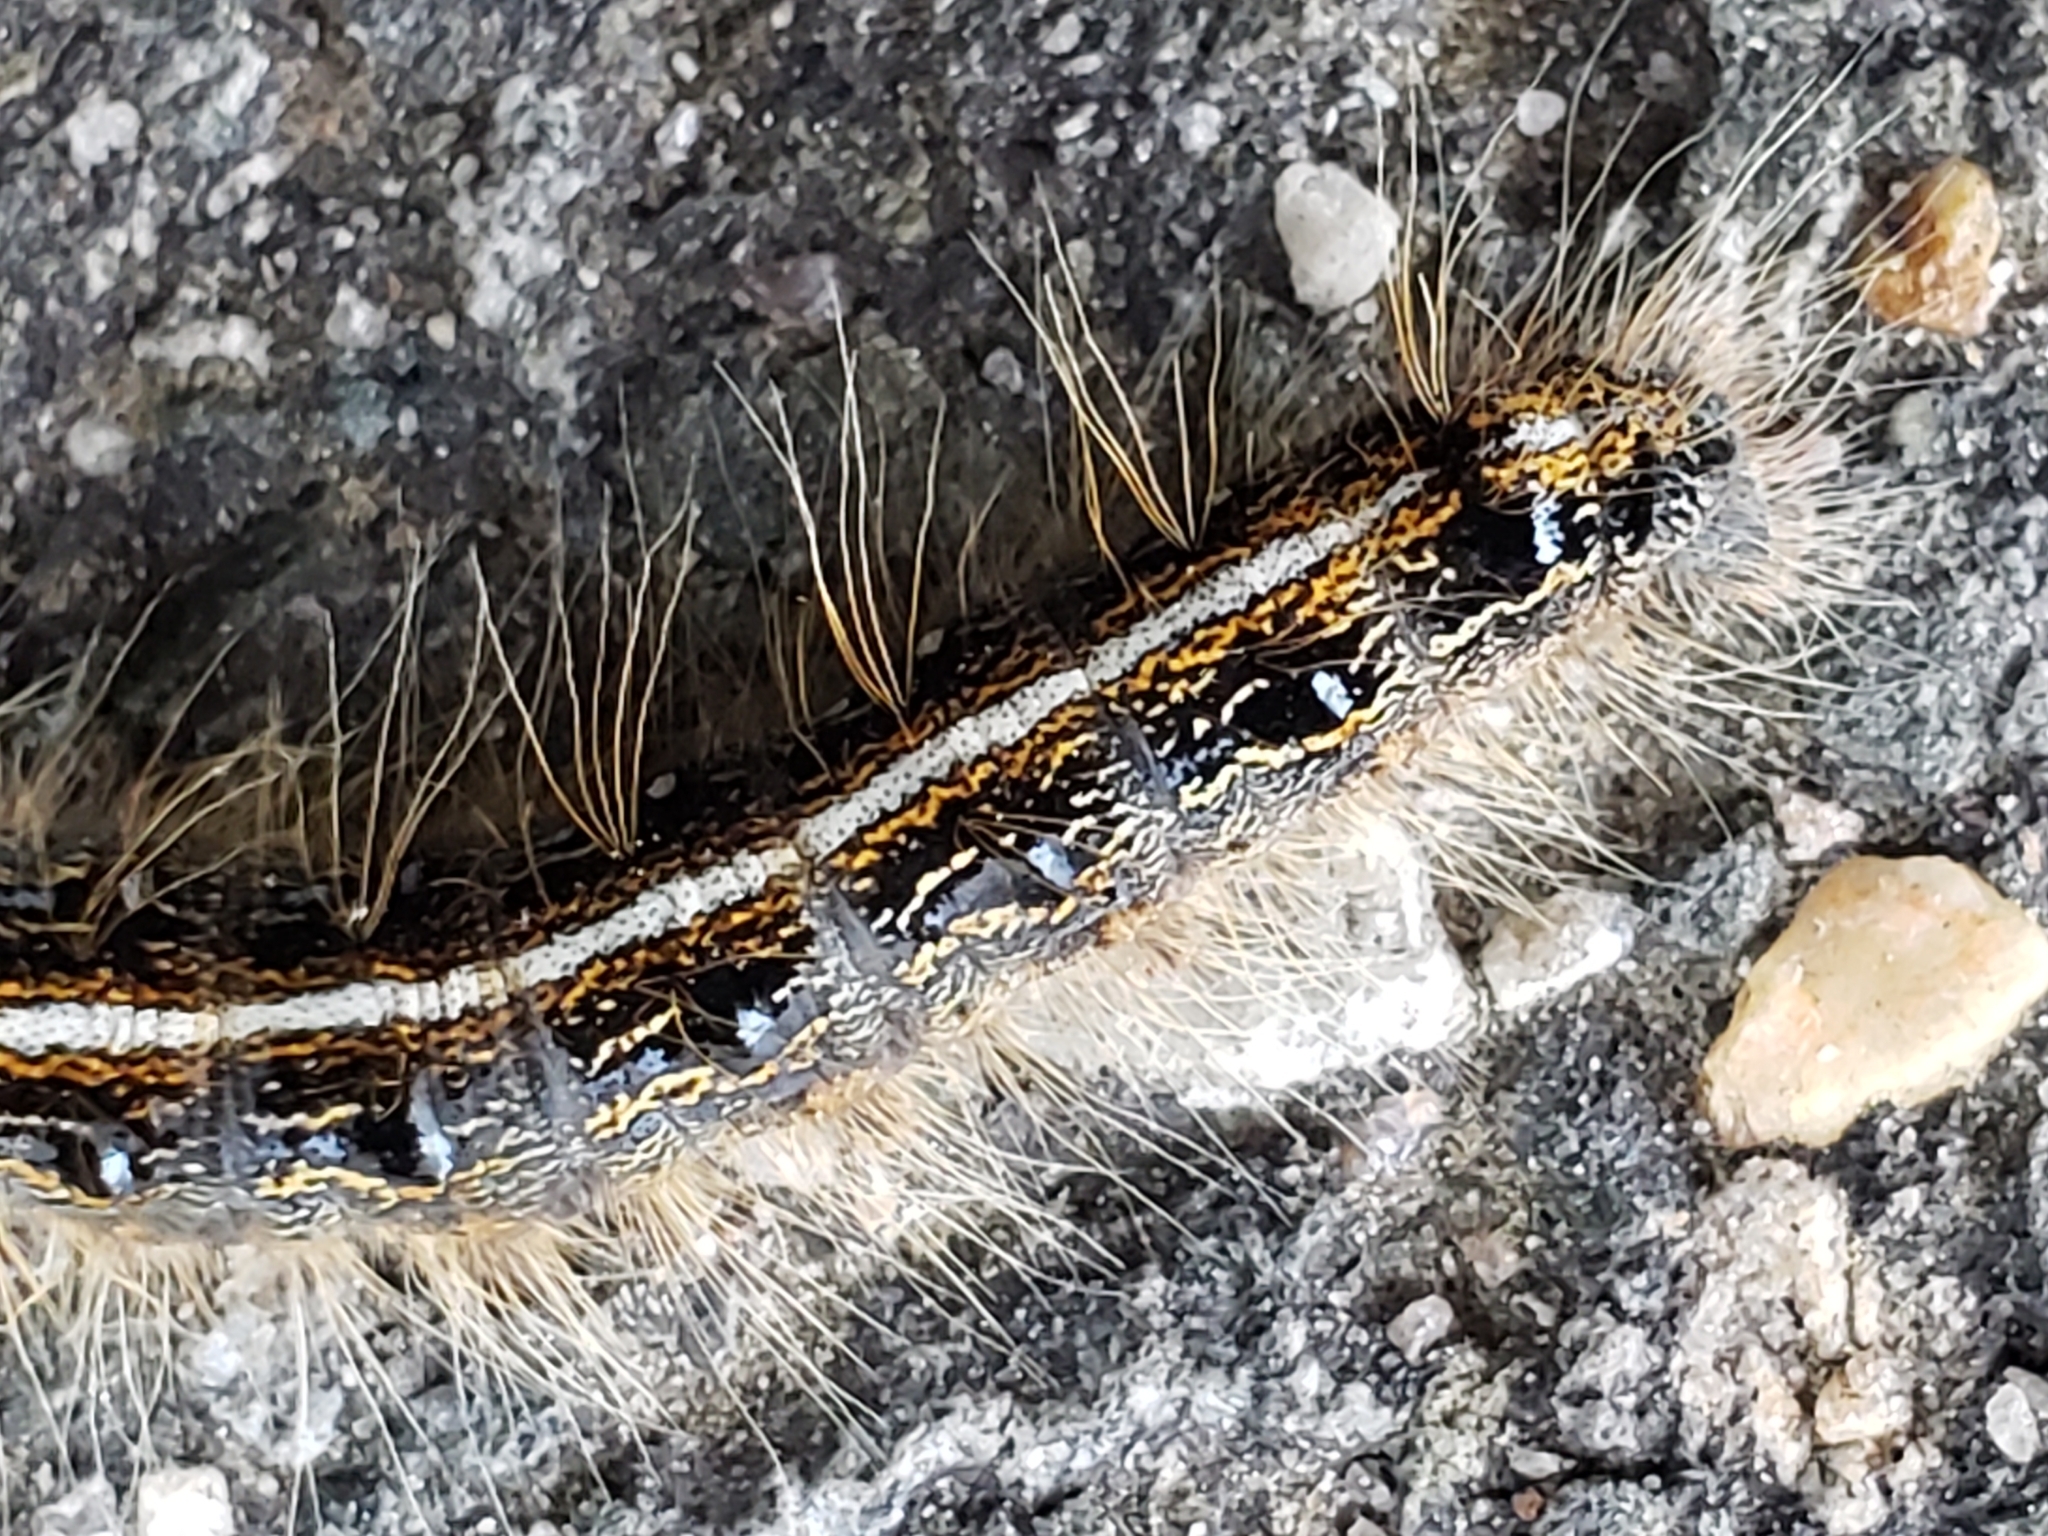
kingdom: Animalia
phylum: Arthropoda
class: Insecta
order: Lepidoptera
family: Lasiocampidae
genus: Malacosoma
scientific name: Malacosoma americana
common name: Eastern tent caterpillar moth
